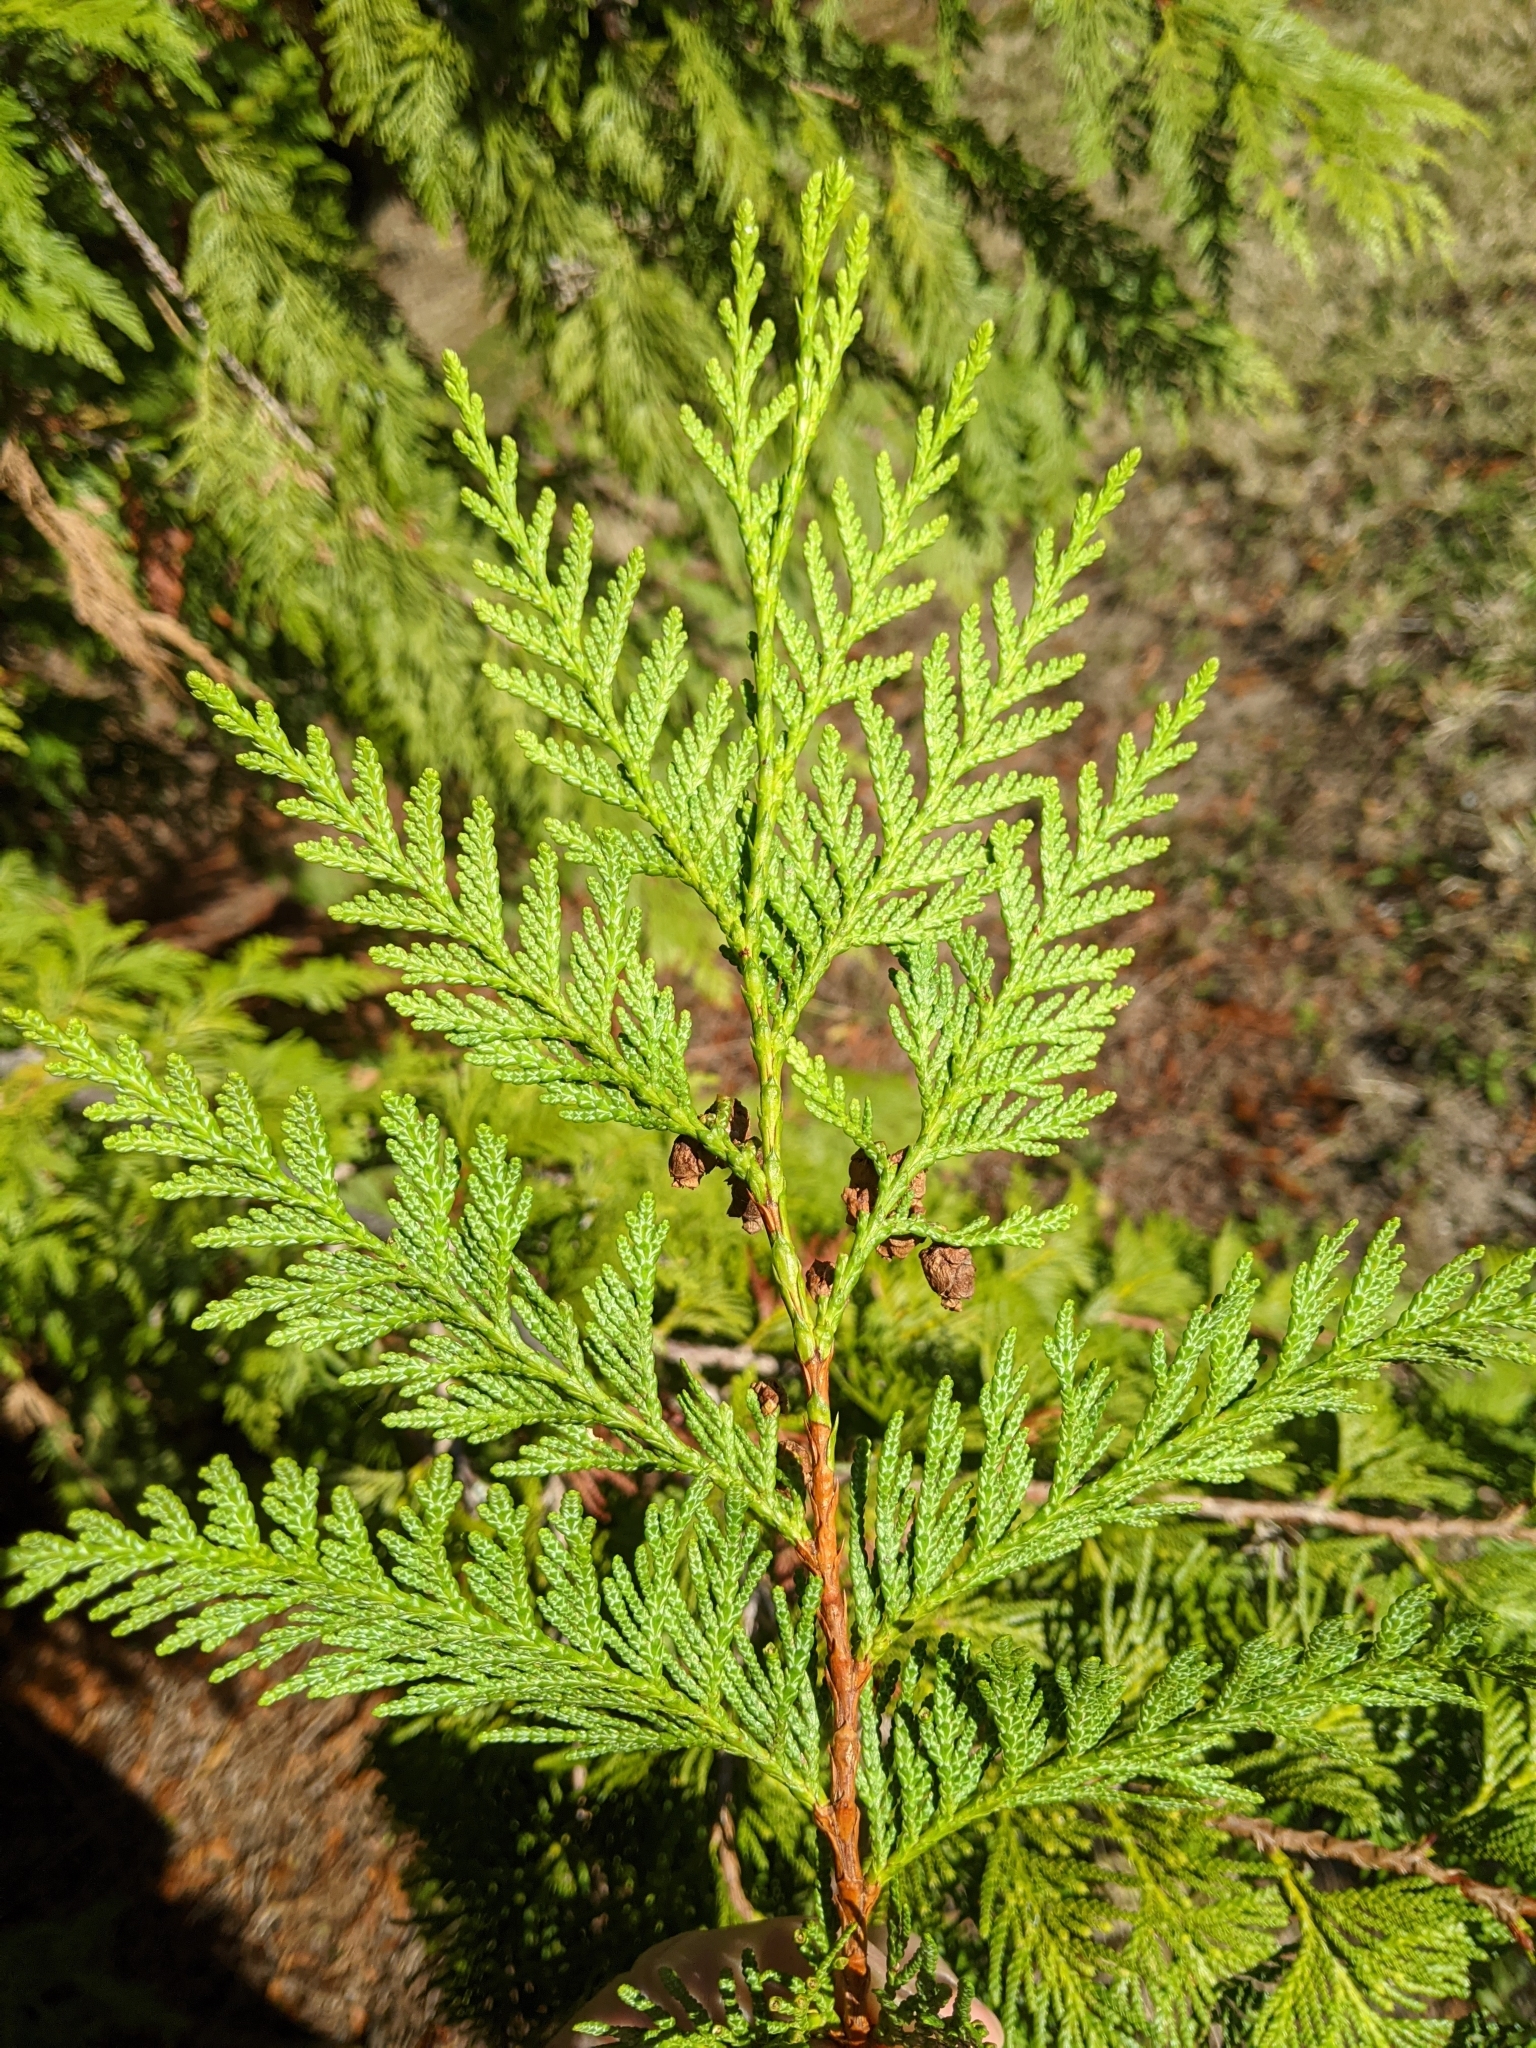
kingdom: Plantae
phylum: Tracheophyta
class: Pinopsida
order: Pinales
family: Cupressaceae
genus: Thuja
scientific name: Thuja plicata
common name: Western red-cedar
